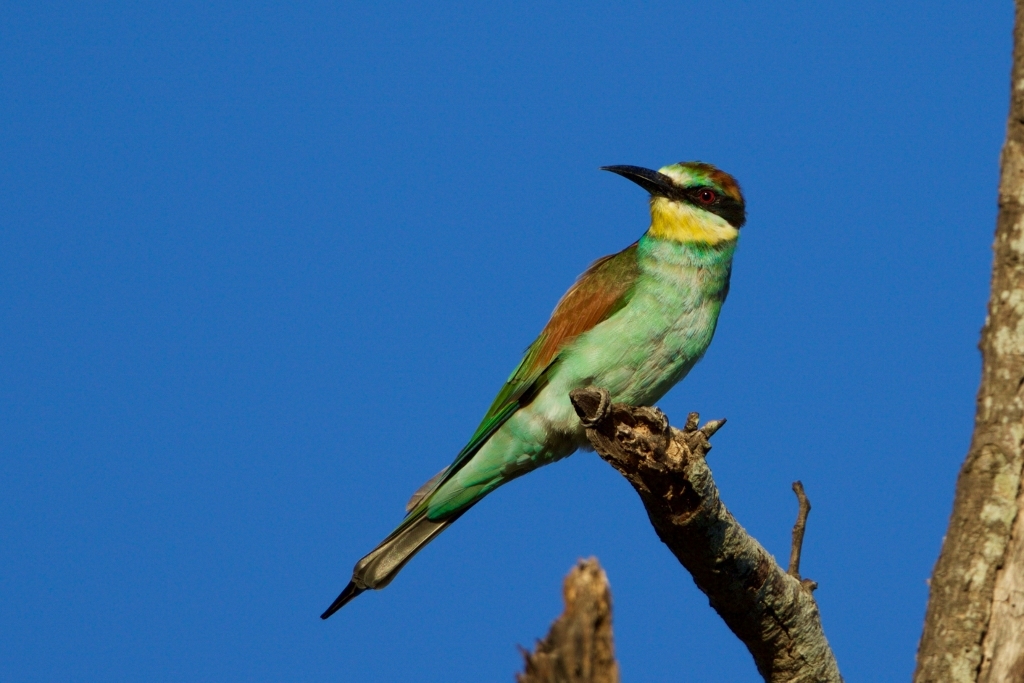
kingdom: Animalia
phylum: Chordata
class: Aves
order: Coraciiformes
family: Meropidae
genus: Merops
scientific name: Merops apiaster
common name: European bee-eater
